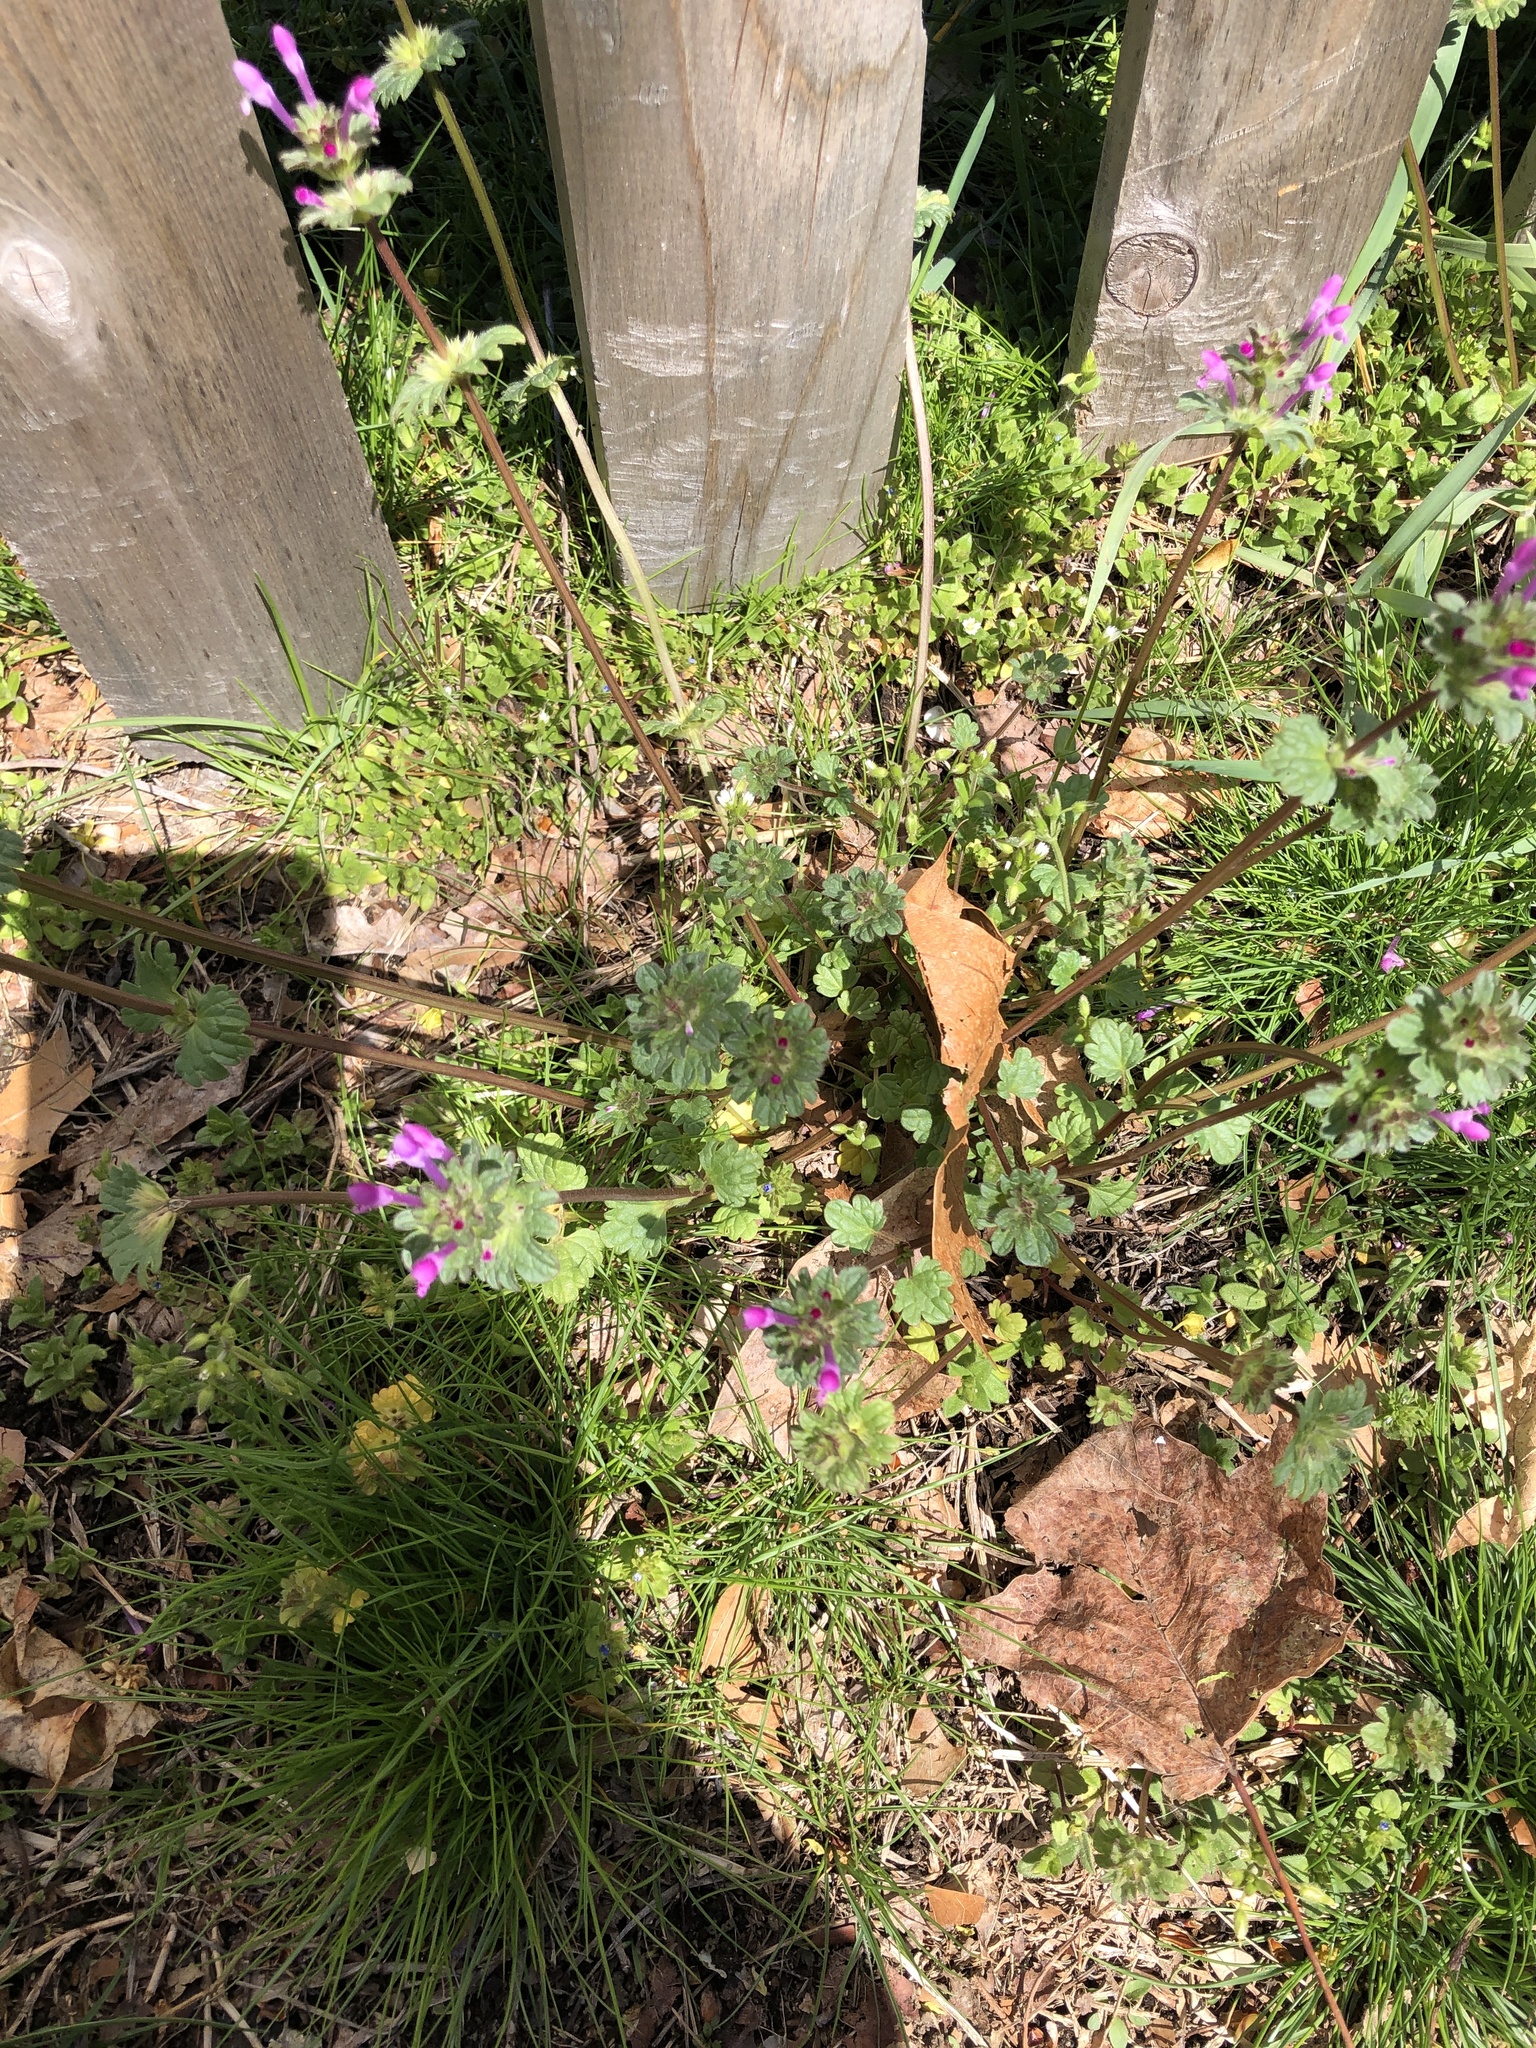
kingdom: Plantae
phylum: Tracheophyta
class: Magnoliopsida
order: Lamiales
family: Lamiaceae
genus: Lamium
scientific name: Lamium amplexicaule
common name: Henbit dead-nettle
